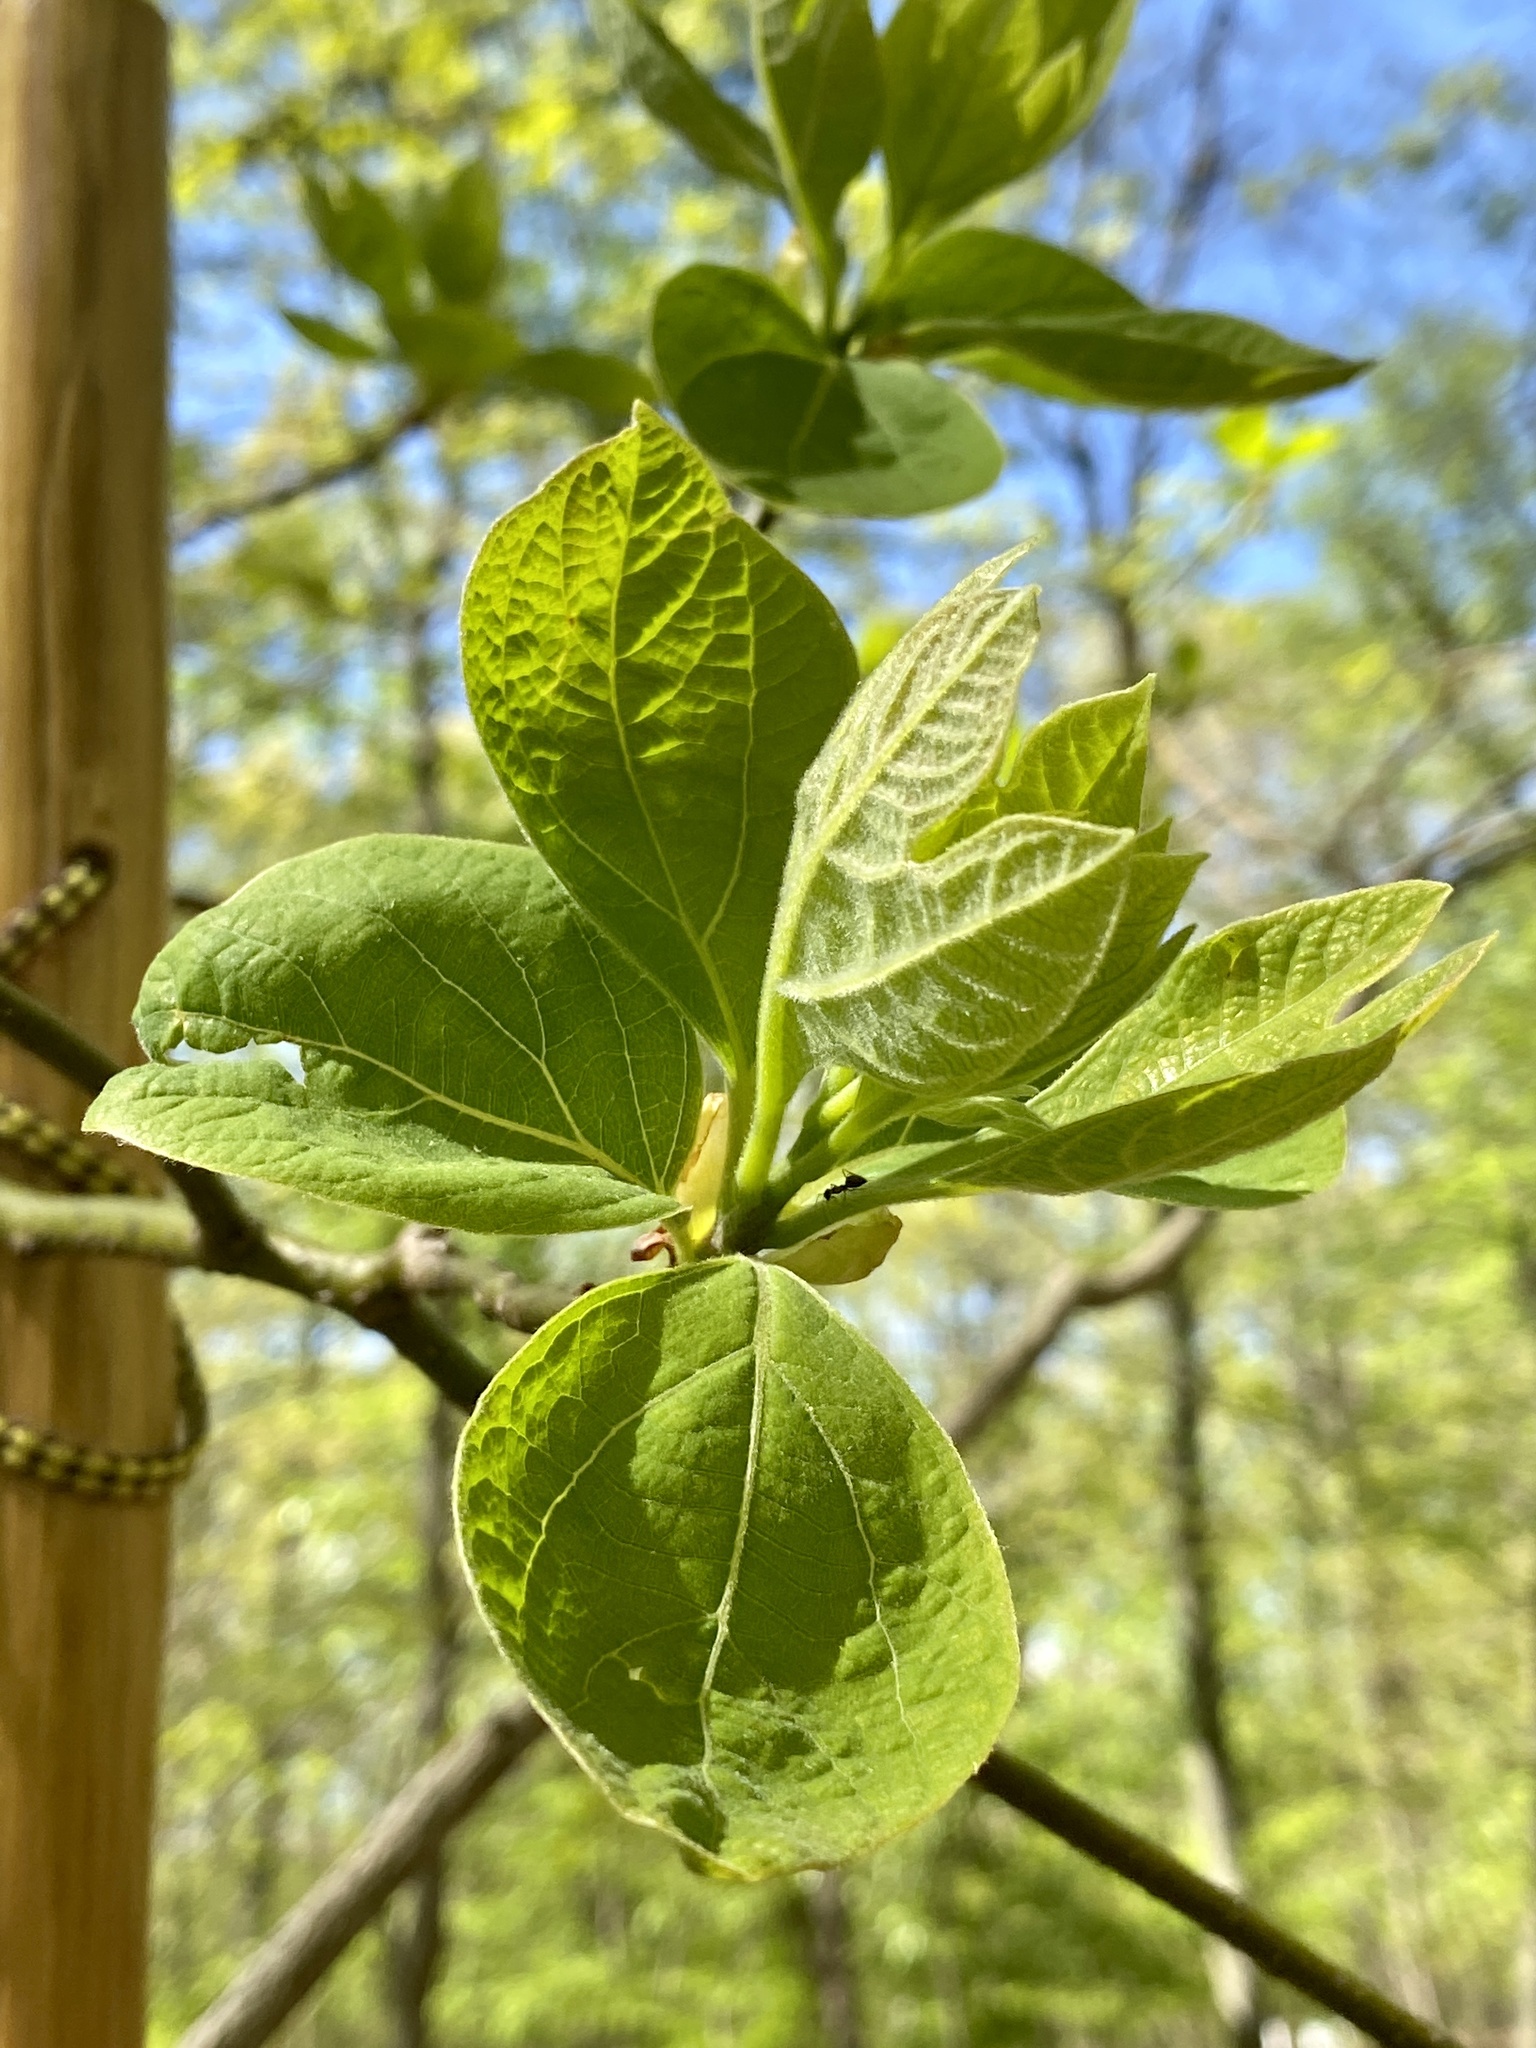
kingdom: Plantae
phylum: Tracheophyta
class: Magnoliopsida
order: Laurales
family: Lauraceae
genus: Sassafras
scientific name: Sassafras albidum
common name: Sassafras
